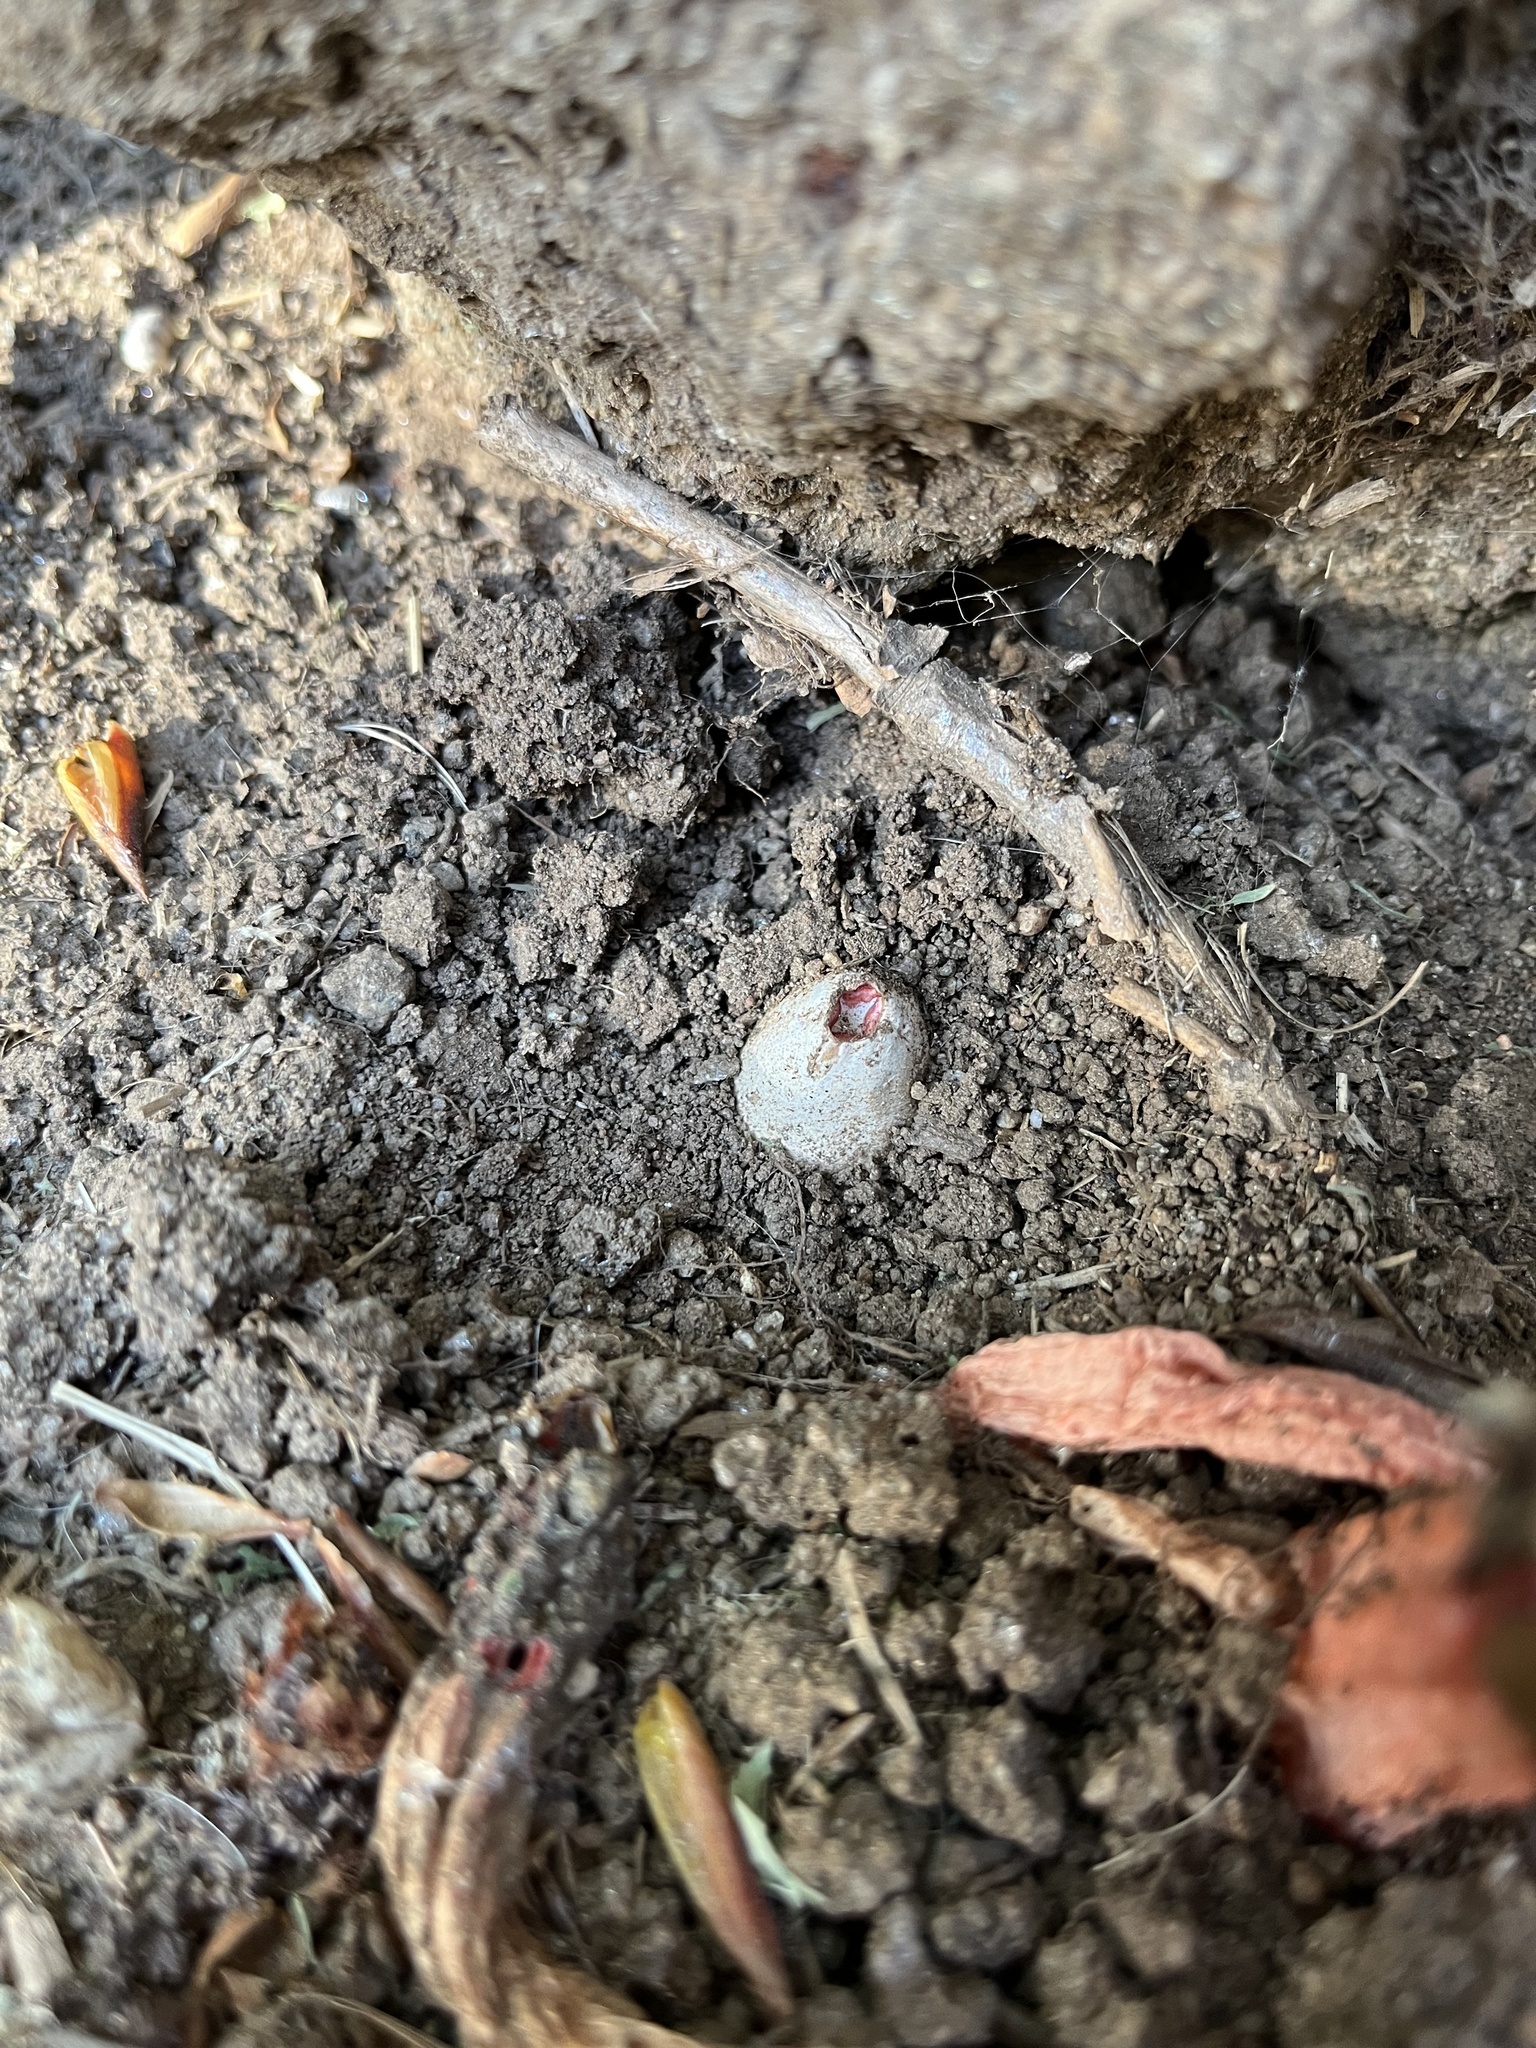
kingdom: Fungi
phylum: Basidiomycota
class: Agaricomycetes
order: Phallales
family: Phallaceae
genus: Lysurus
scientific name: Lysurus mokusin
